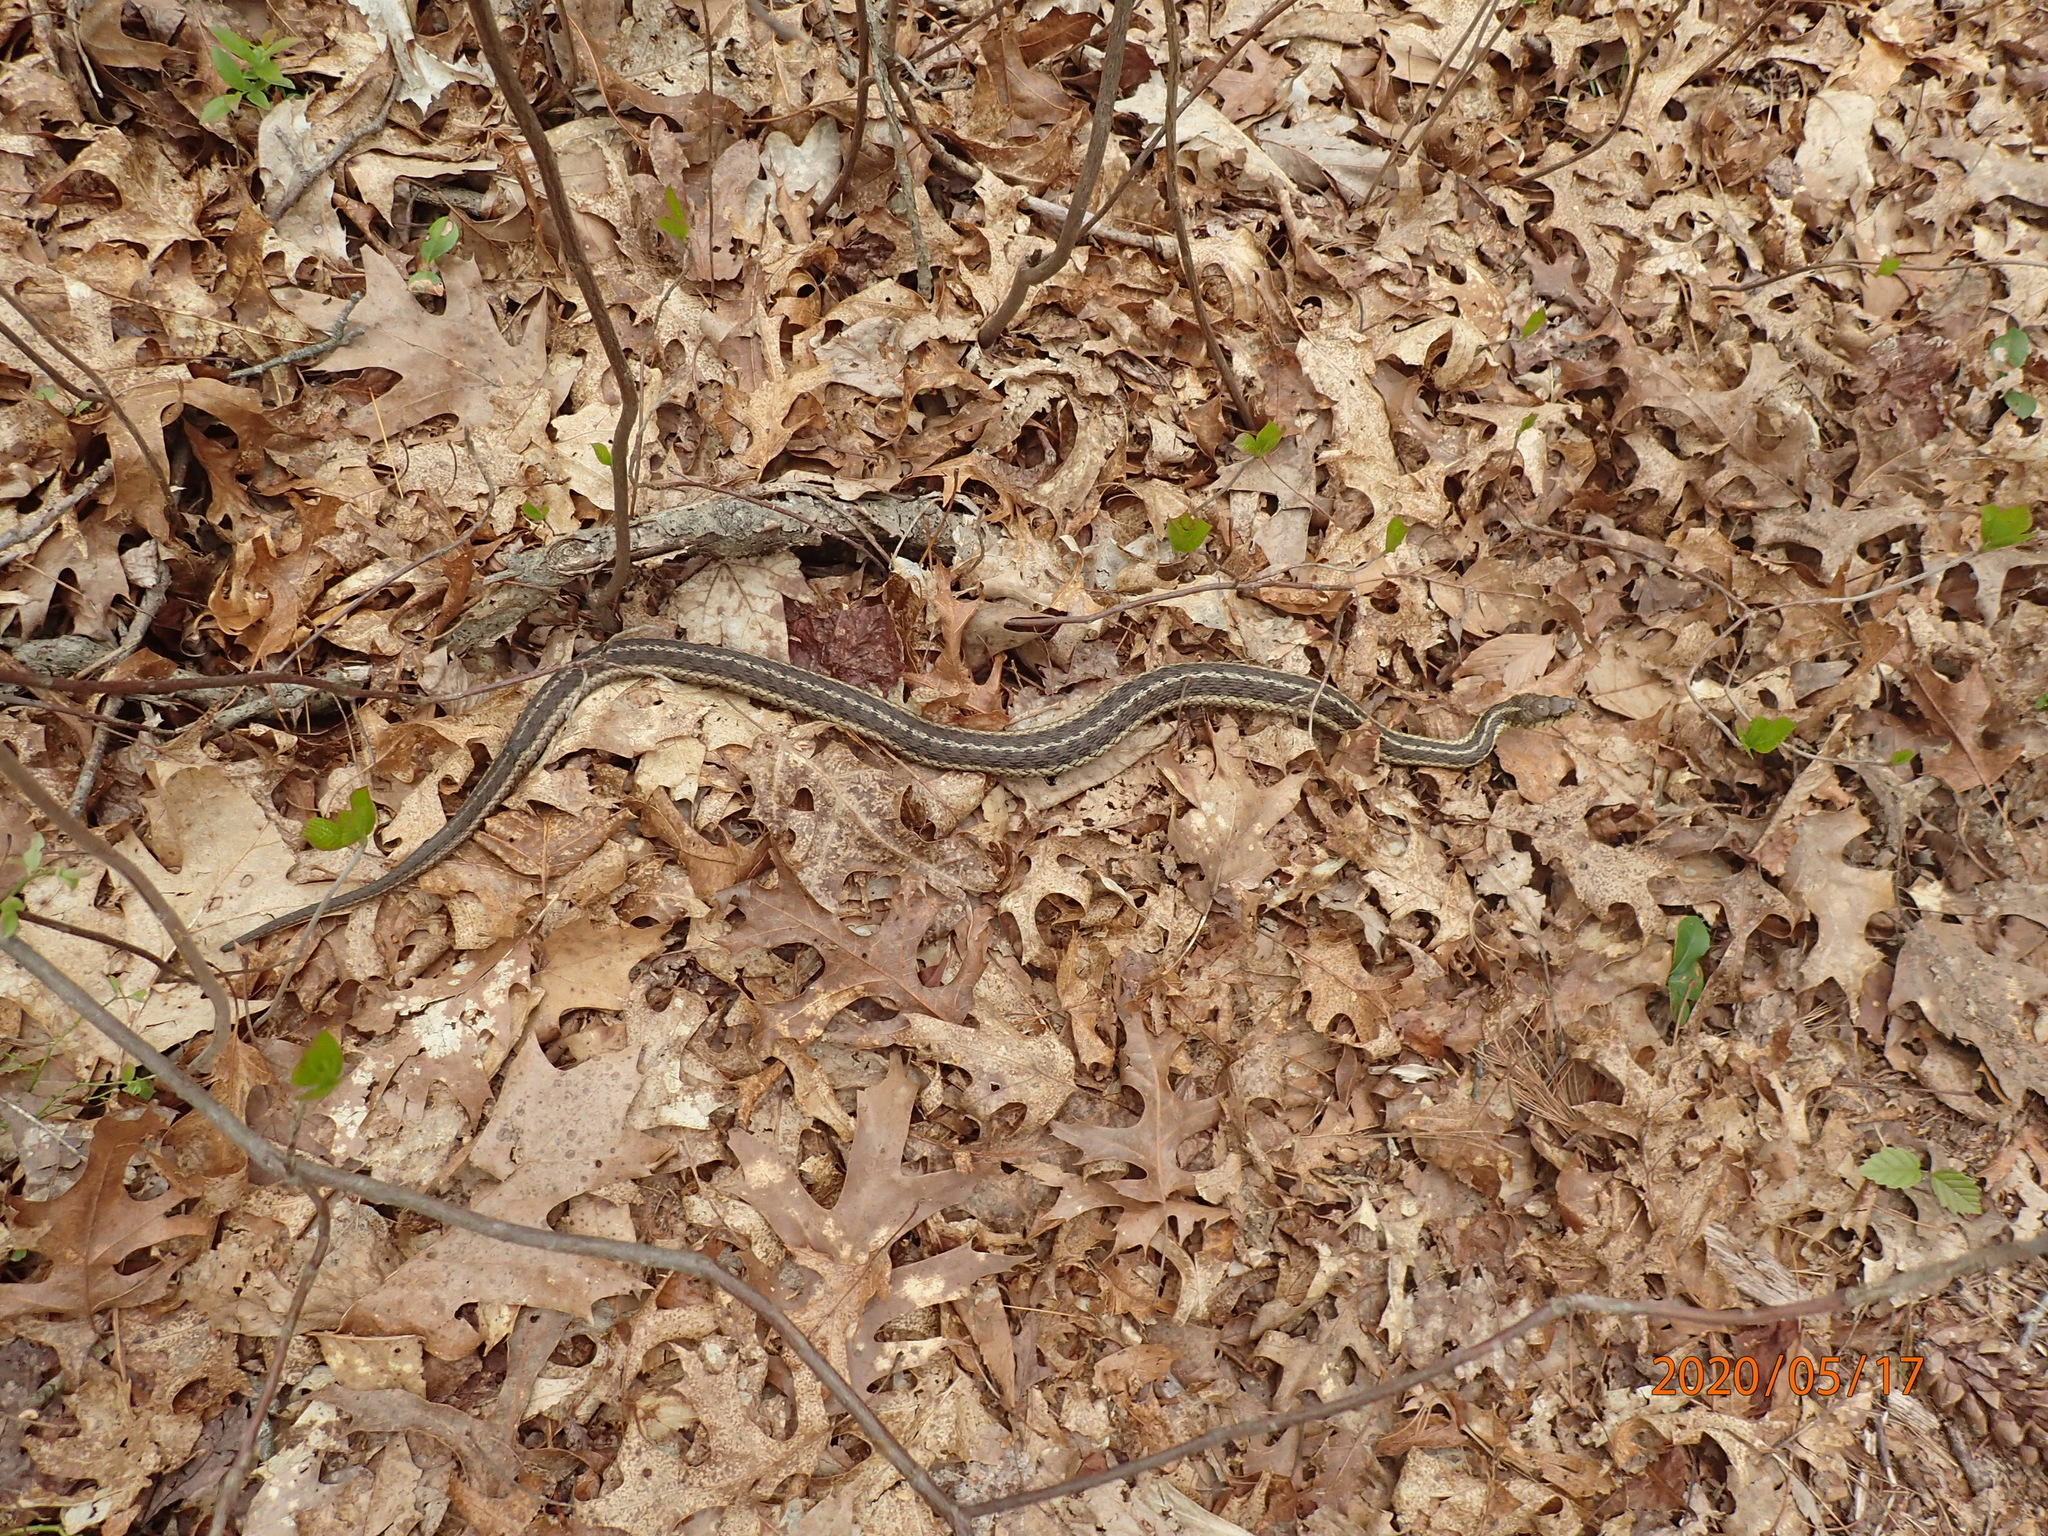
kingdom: Animalia
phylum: Chordata
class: Squamata
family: Colubridae
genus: Thamnophis
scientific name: Thamnophis sirtalis
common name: Common garter snake
